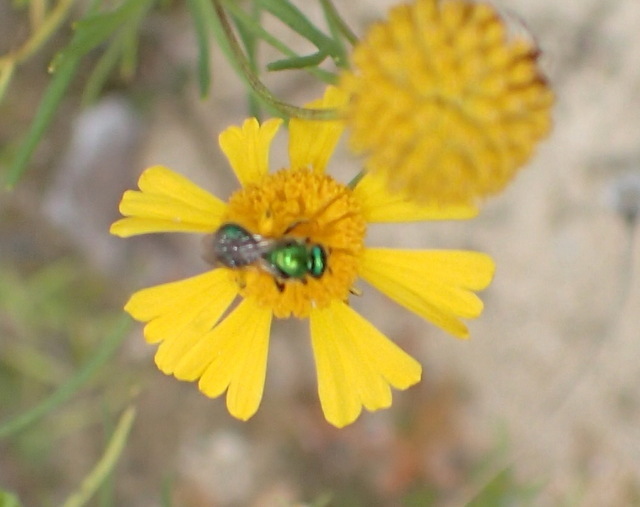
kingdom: Animalia
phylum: Arthropoda
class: Insecta
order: Hymenoptera
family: Halictidae
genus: Augochlora
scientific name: Augochlora pura
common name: Pure green sweat bee
